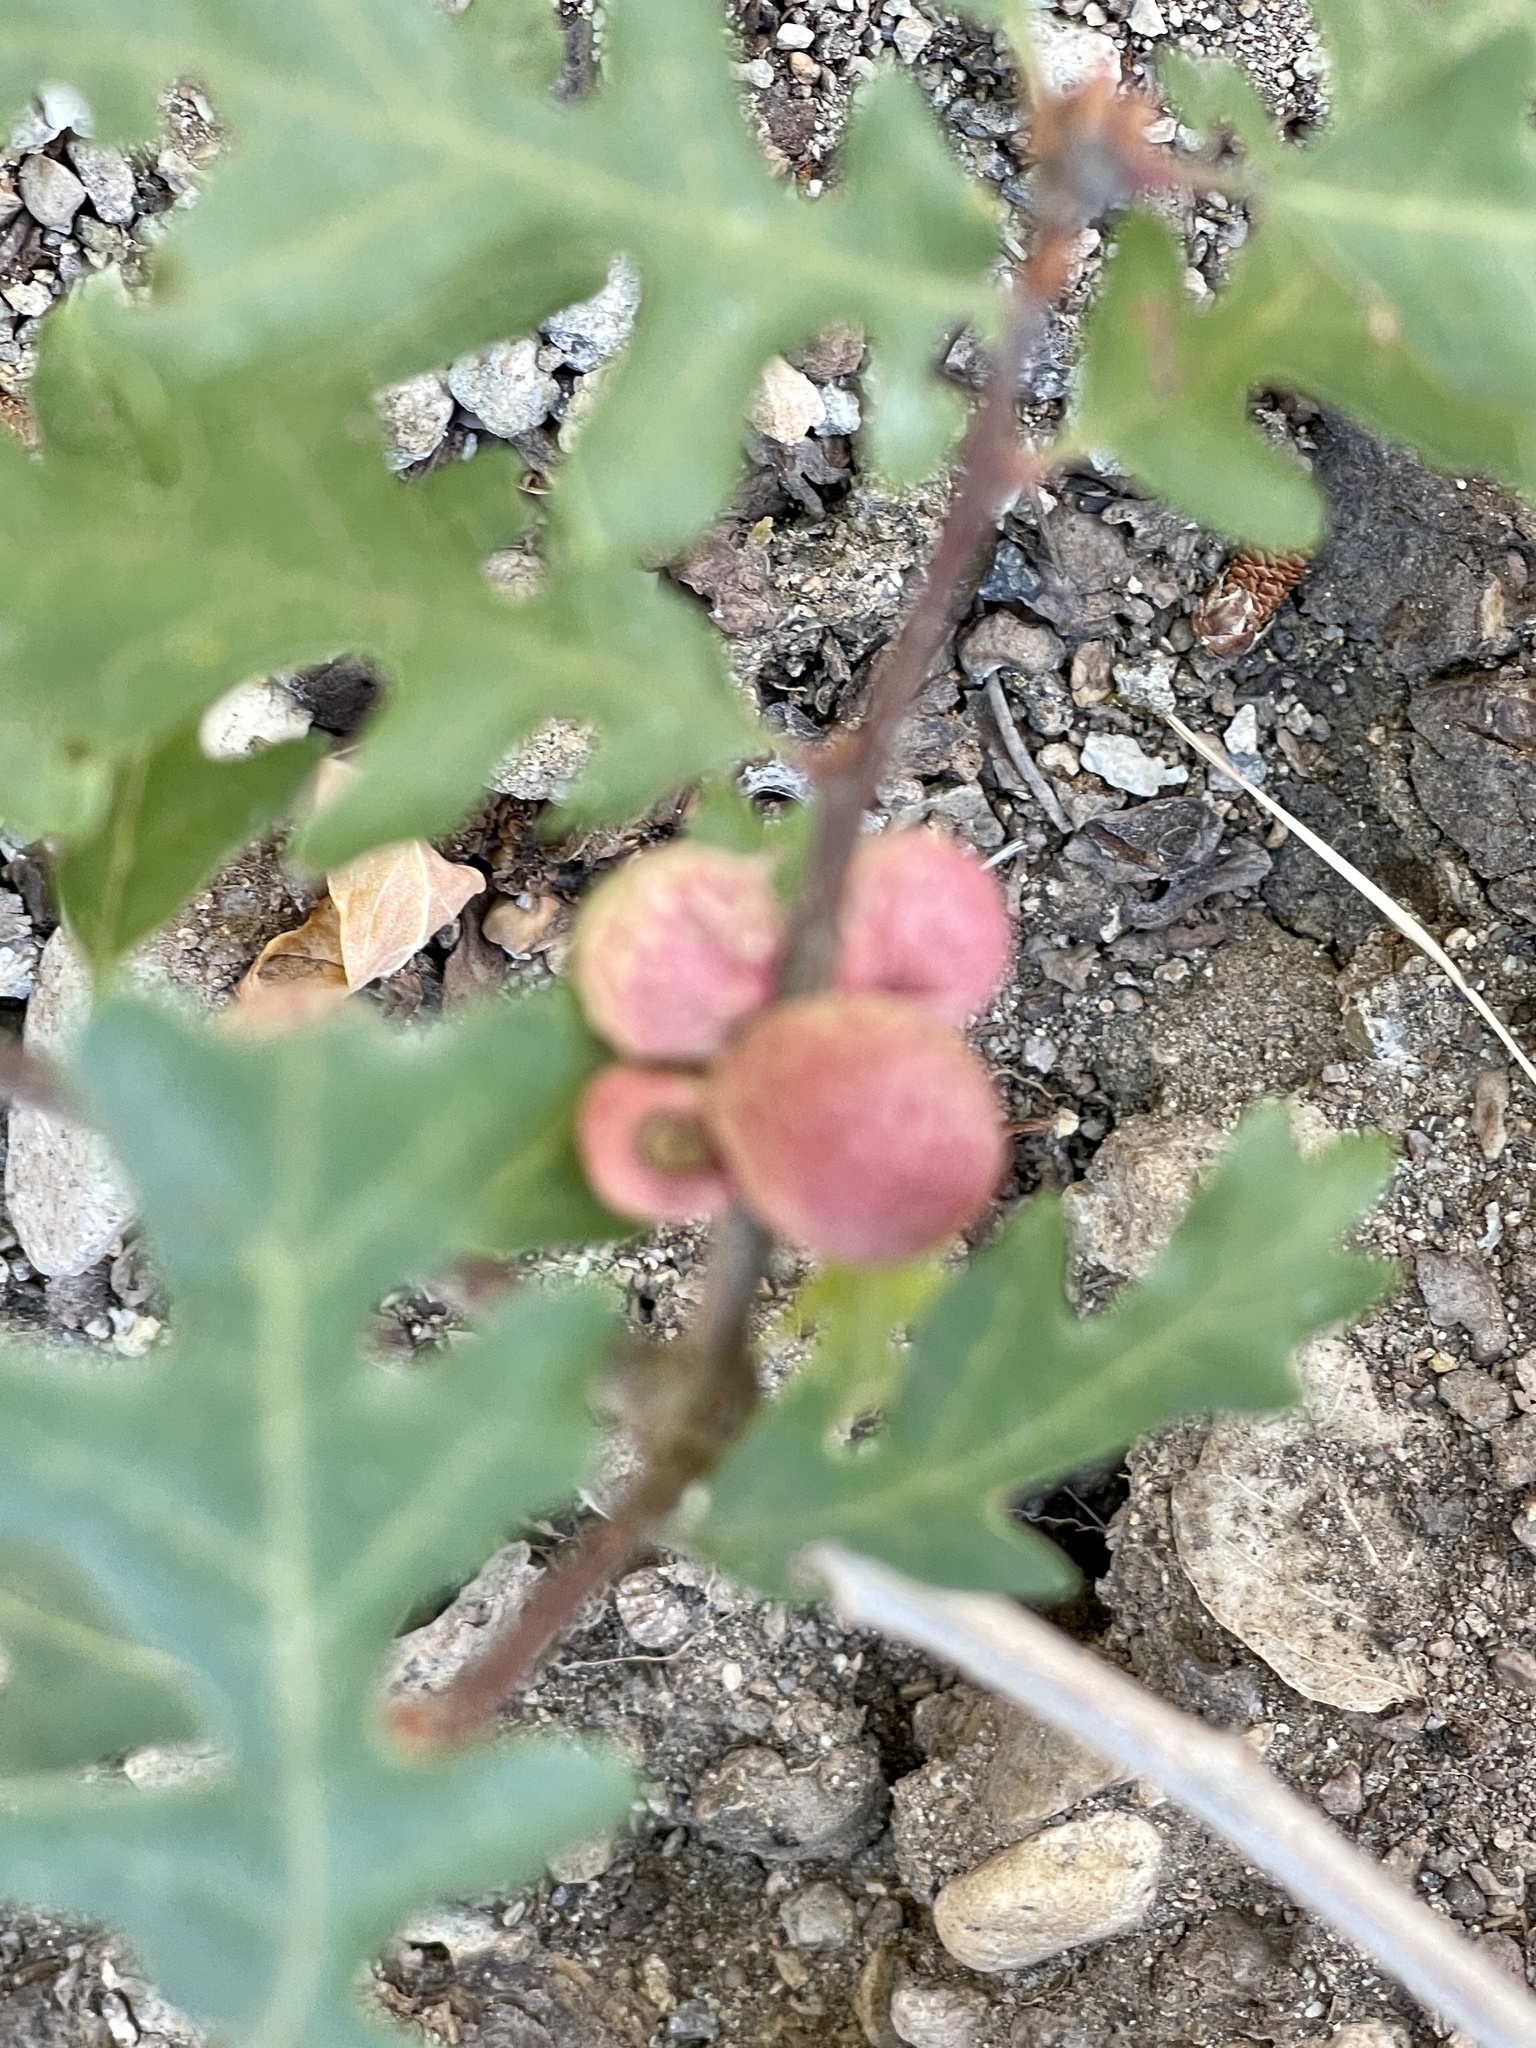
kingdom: Animalia
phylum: Arthropoda
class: Insecta
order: Hymenoptera
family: Cynipidae
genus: Disholcaspis
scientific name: Disholcaspis
